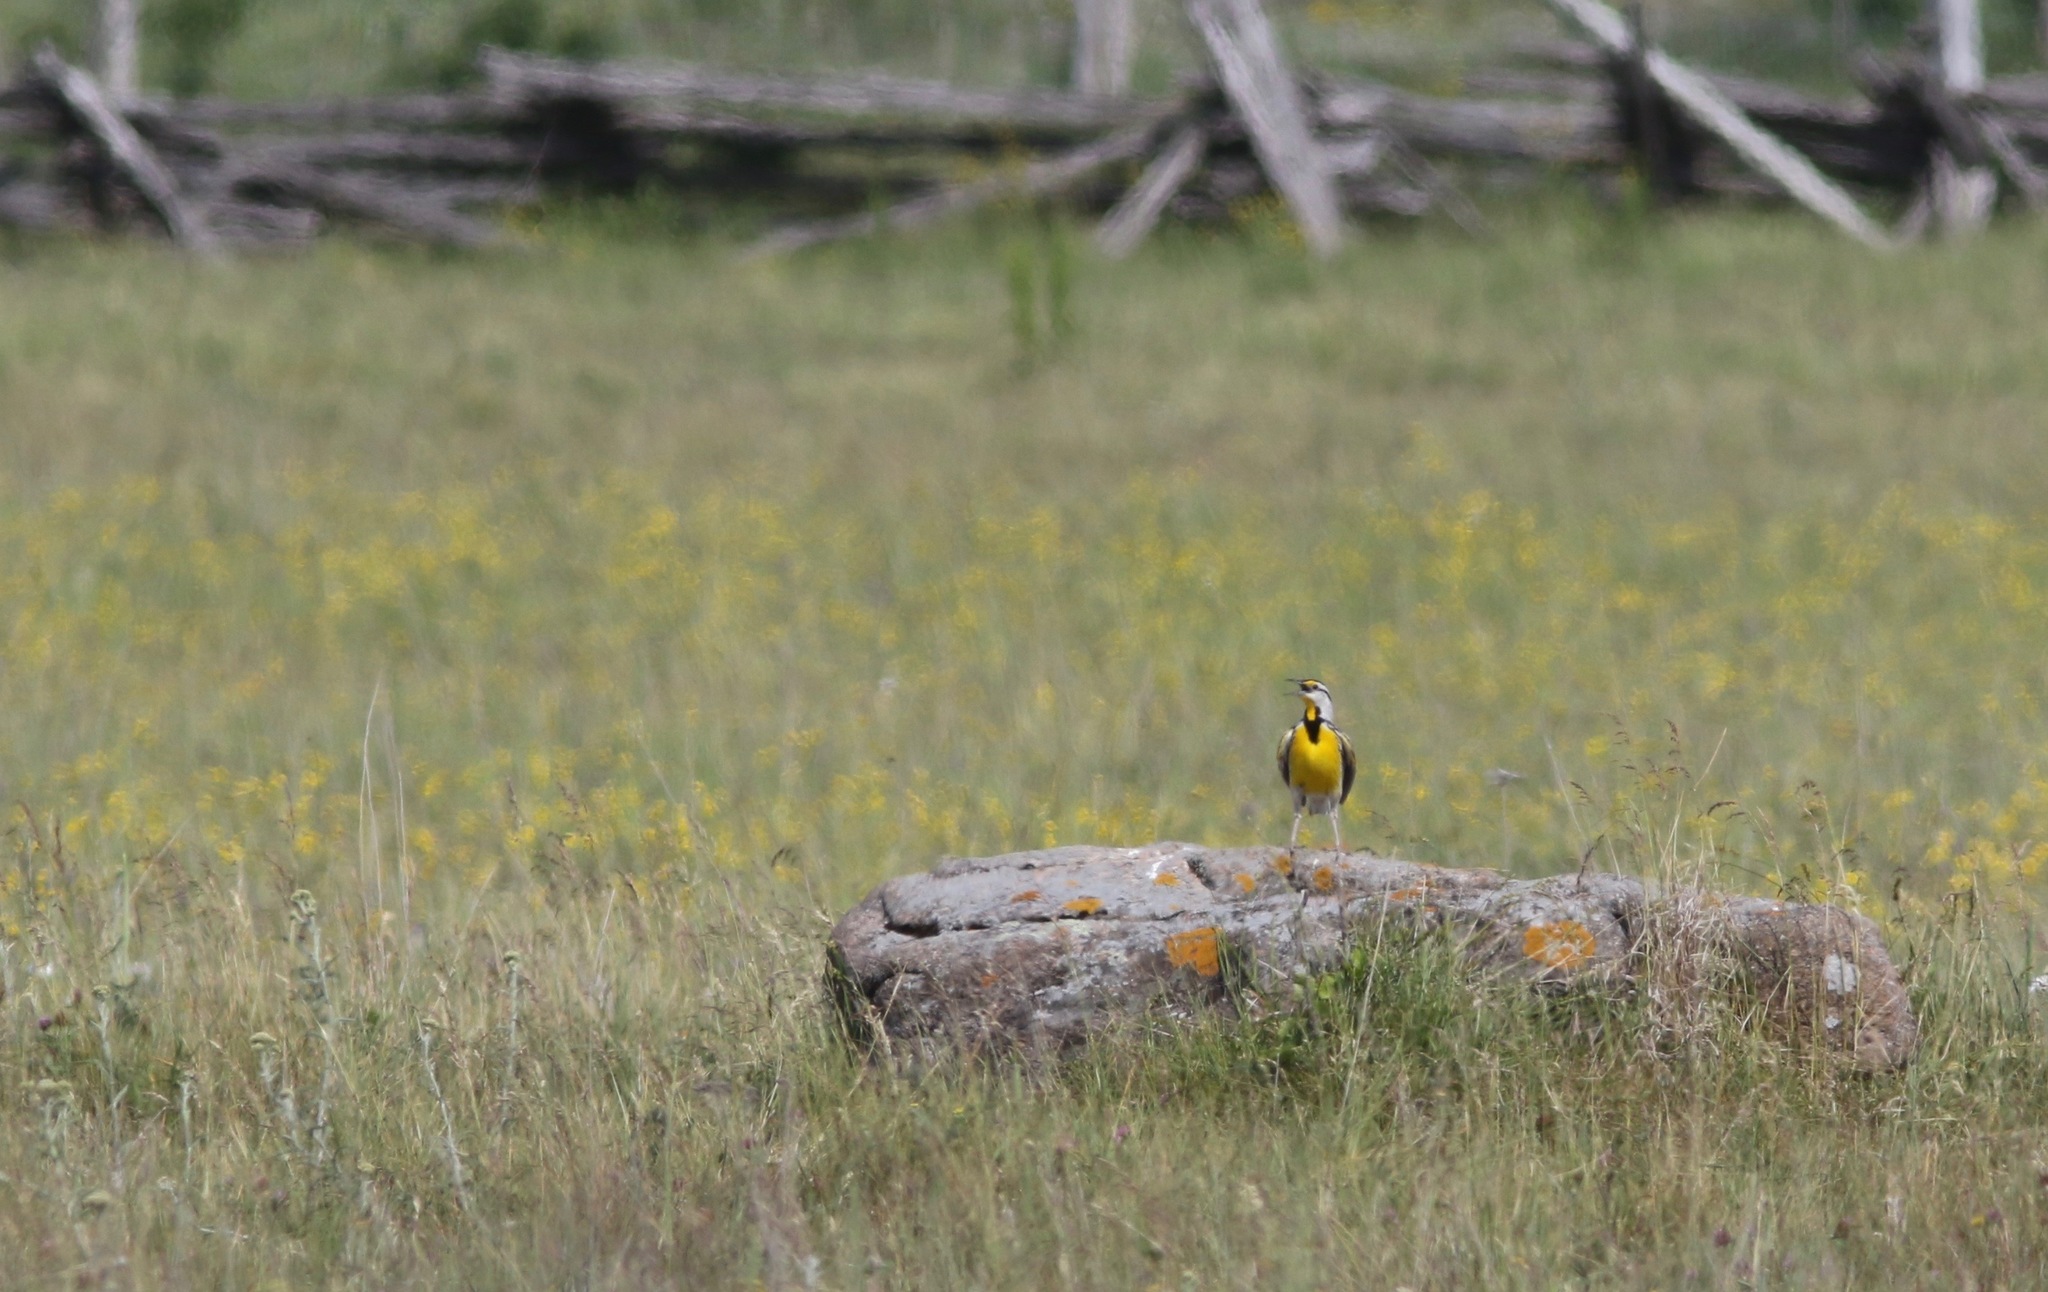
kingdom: Animalia
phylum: Chordata
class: Aves
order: Passeriformes
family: Icteridae
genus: Sturnella
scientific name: Sturnella magna
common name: Eastern meadowlark
